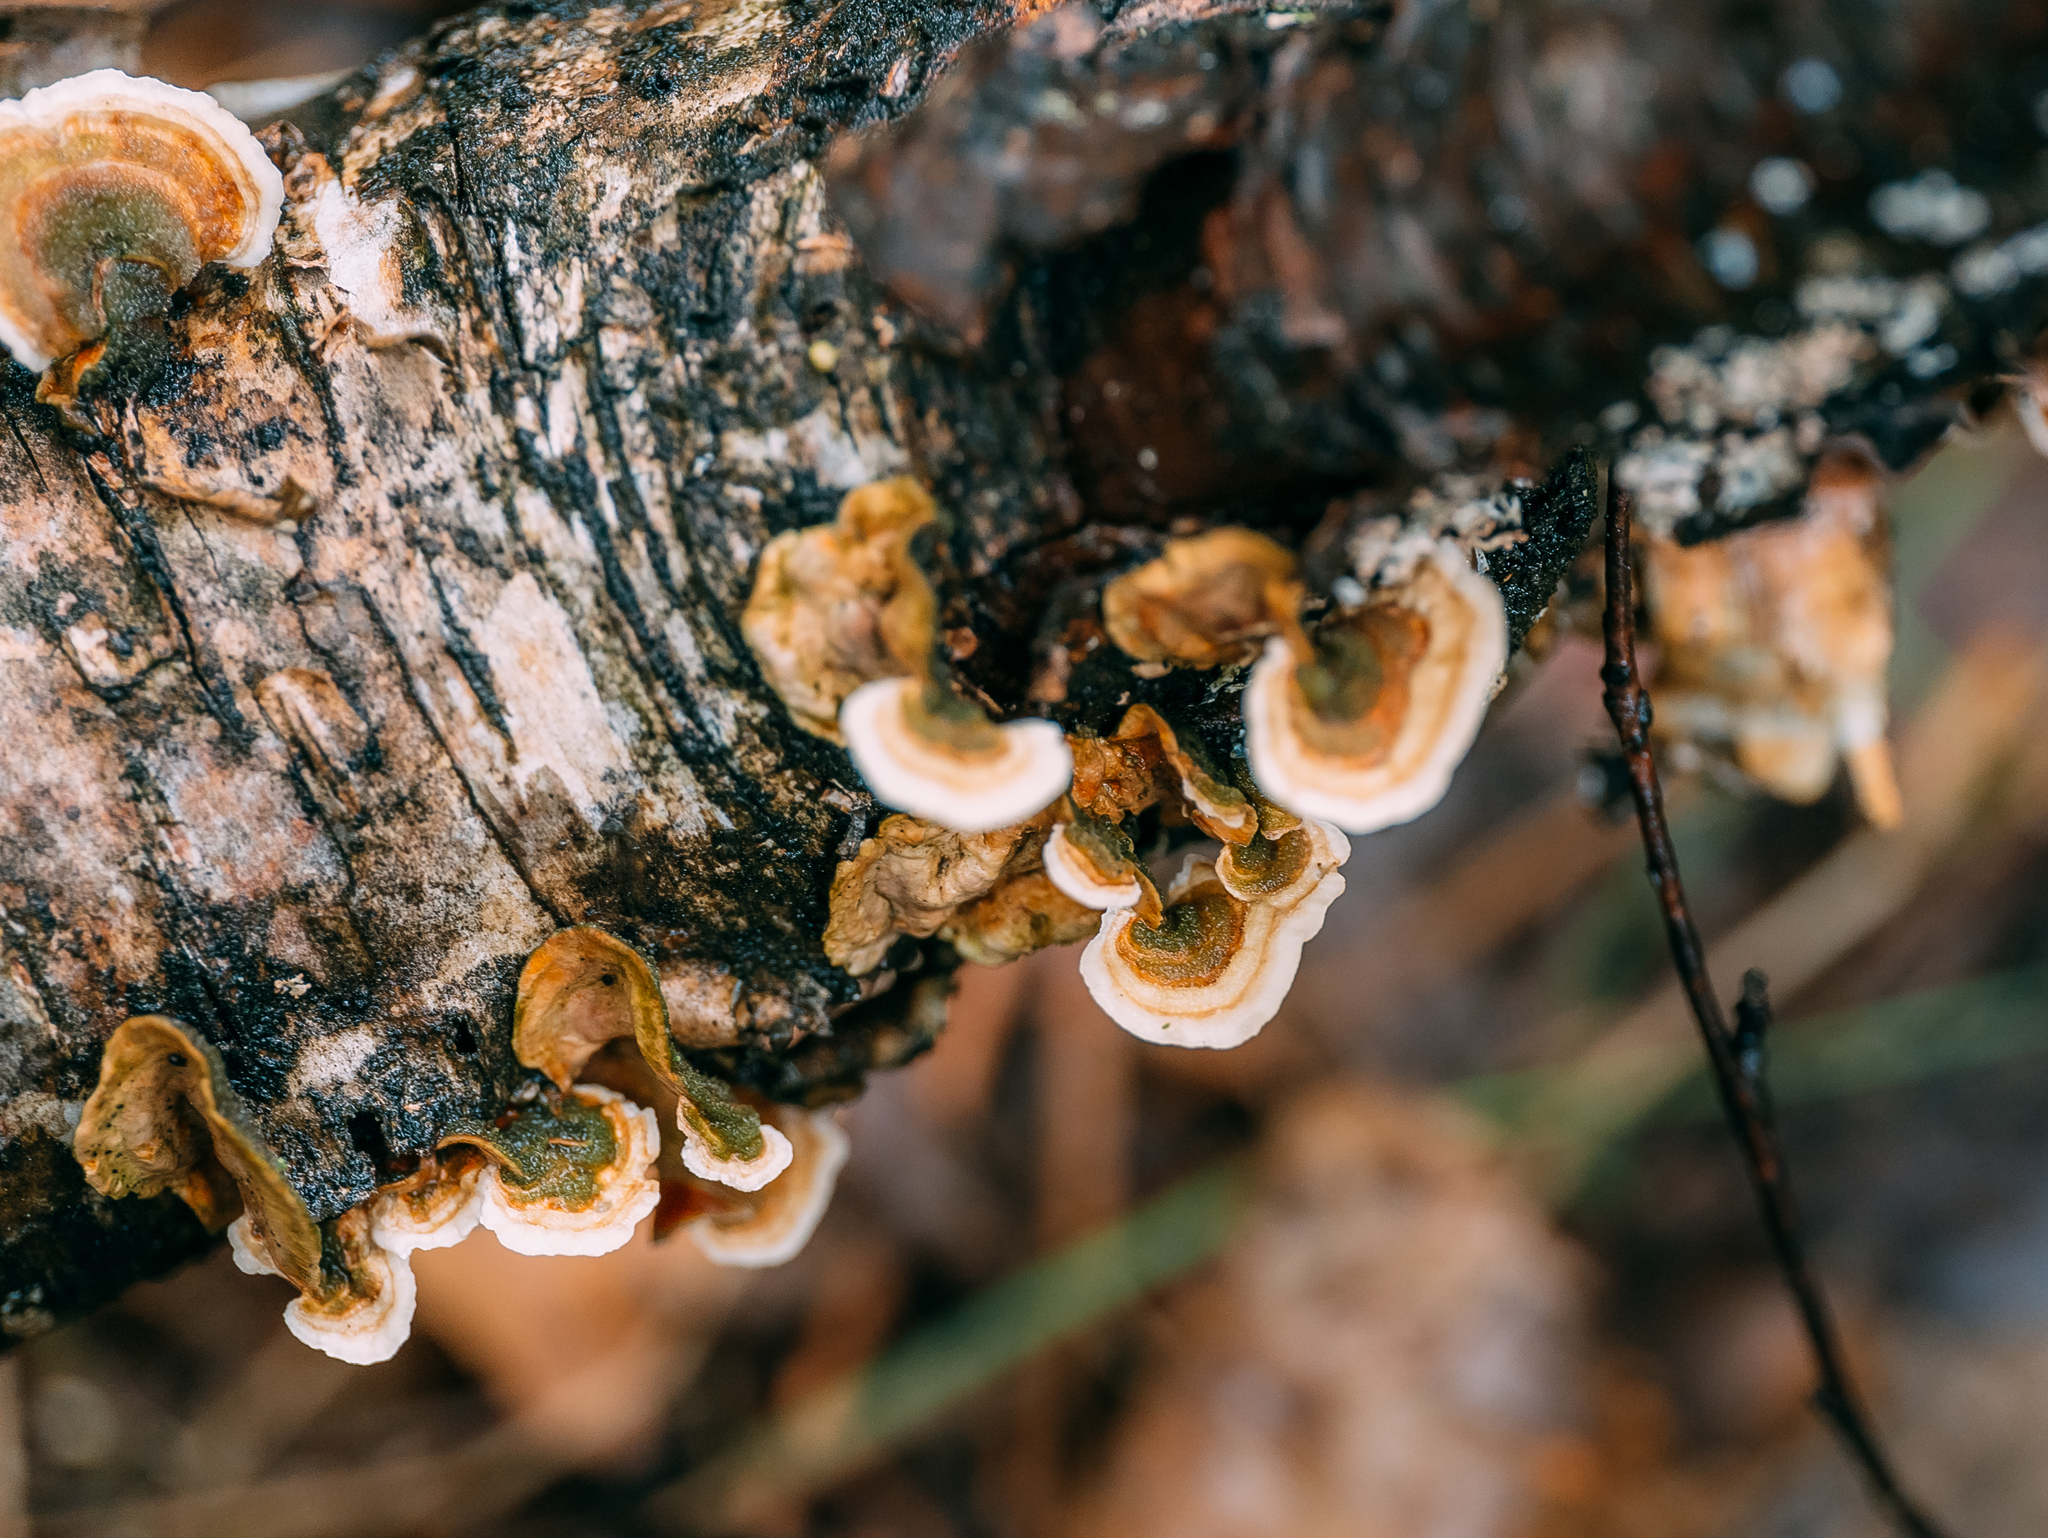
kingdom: Fungi
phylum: Basidiomycota
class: Agaricomycetes
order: Russulales
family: Stereaceae
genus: Stereum
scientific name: Stereum hirsutum
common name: Hairy curtain crust
